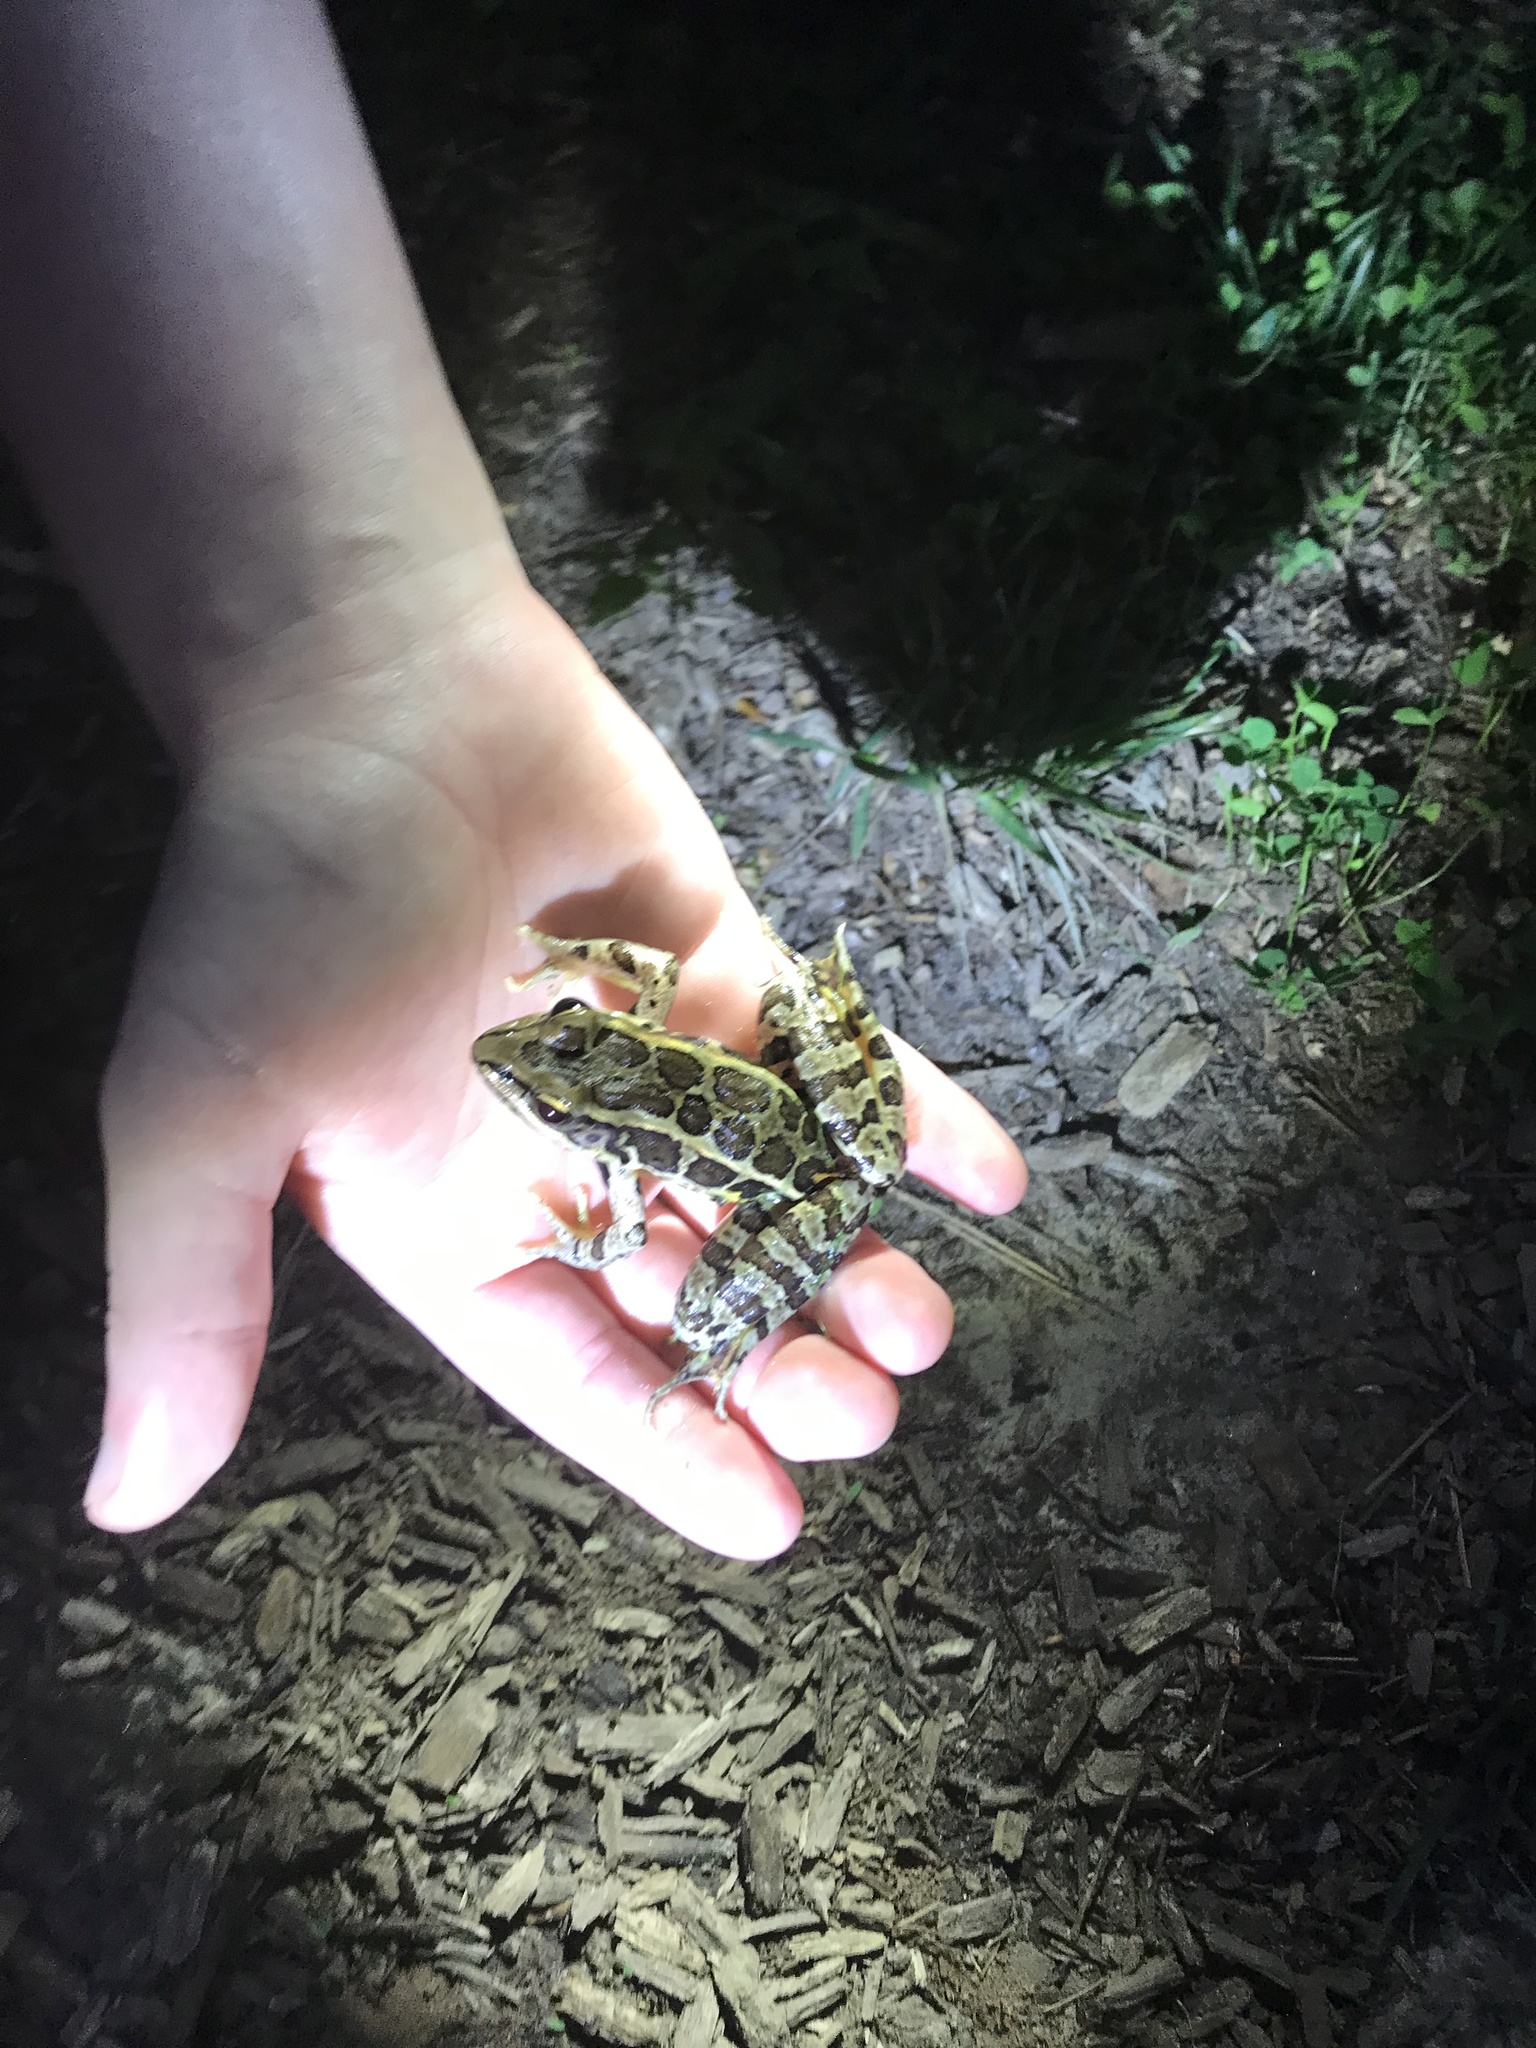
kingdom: Animalia
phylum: Chordata
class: Amphibia
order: Anura
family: Ranidae
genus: Lithobates
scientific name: Lithobates palustris
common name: Pickerel frog
